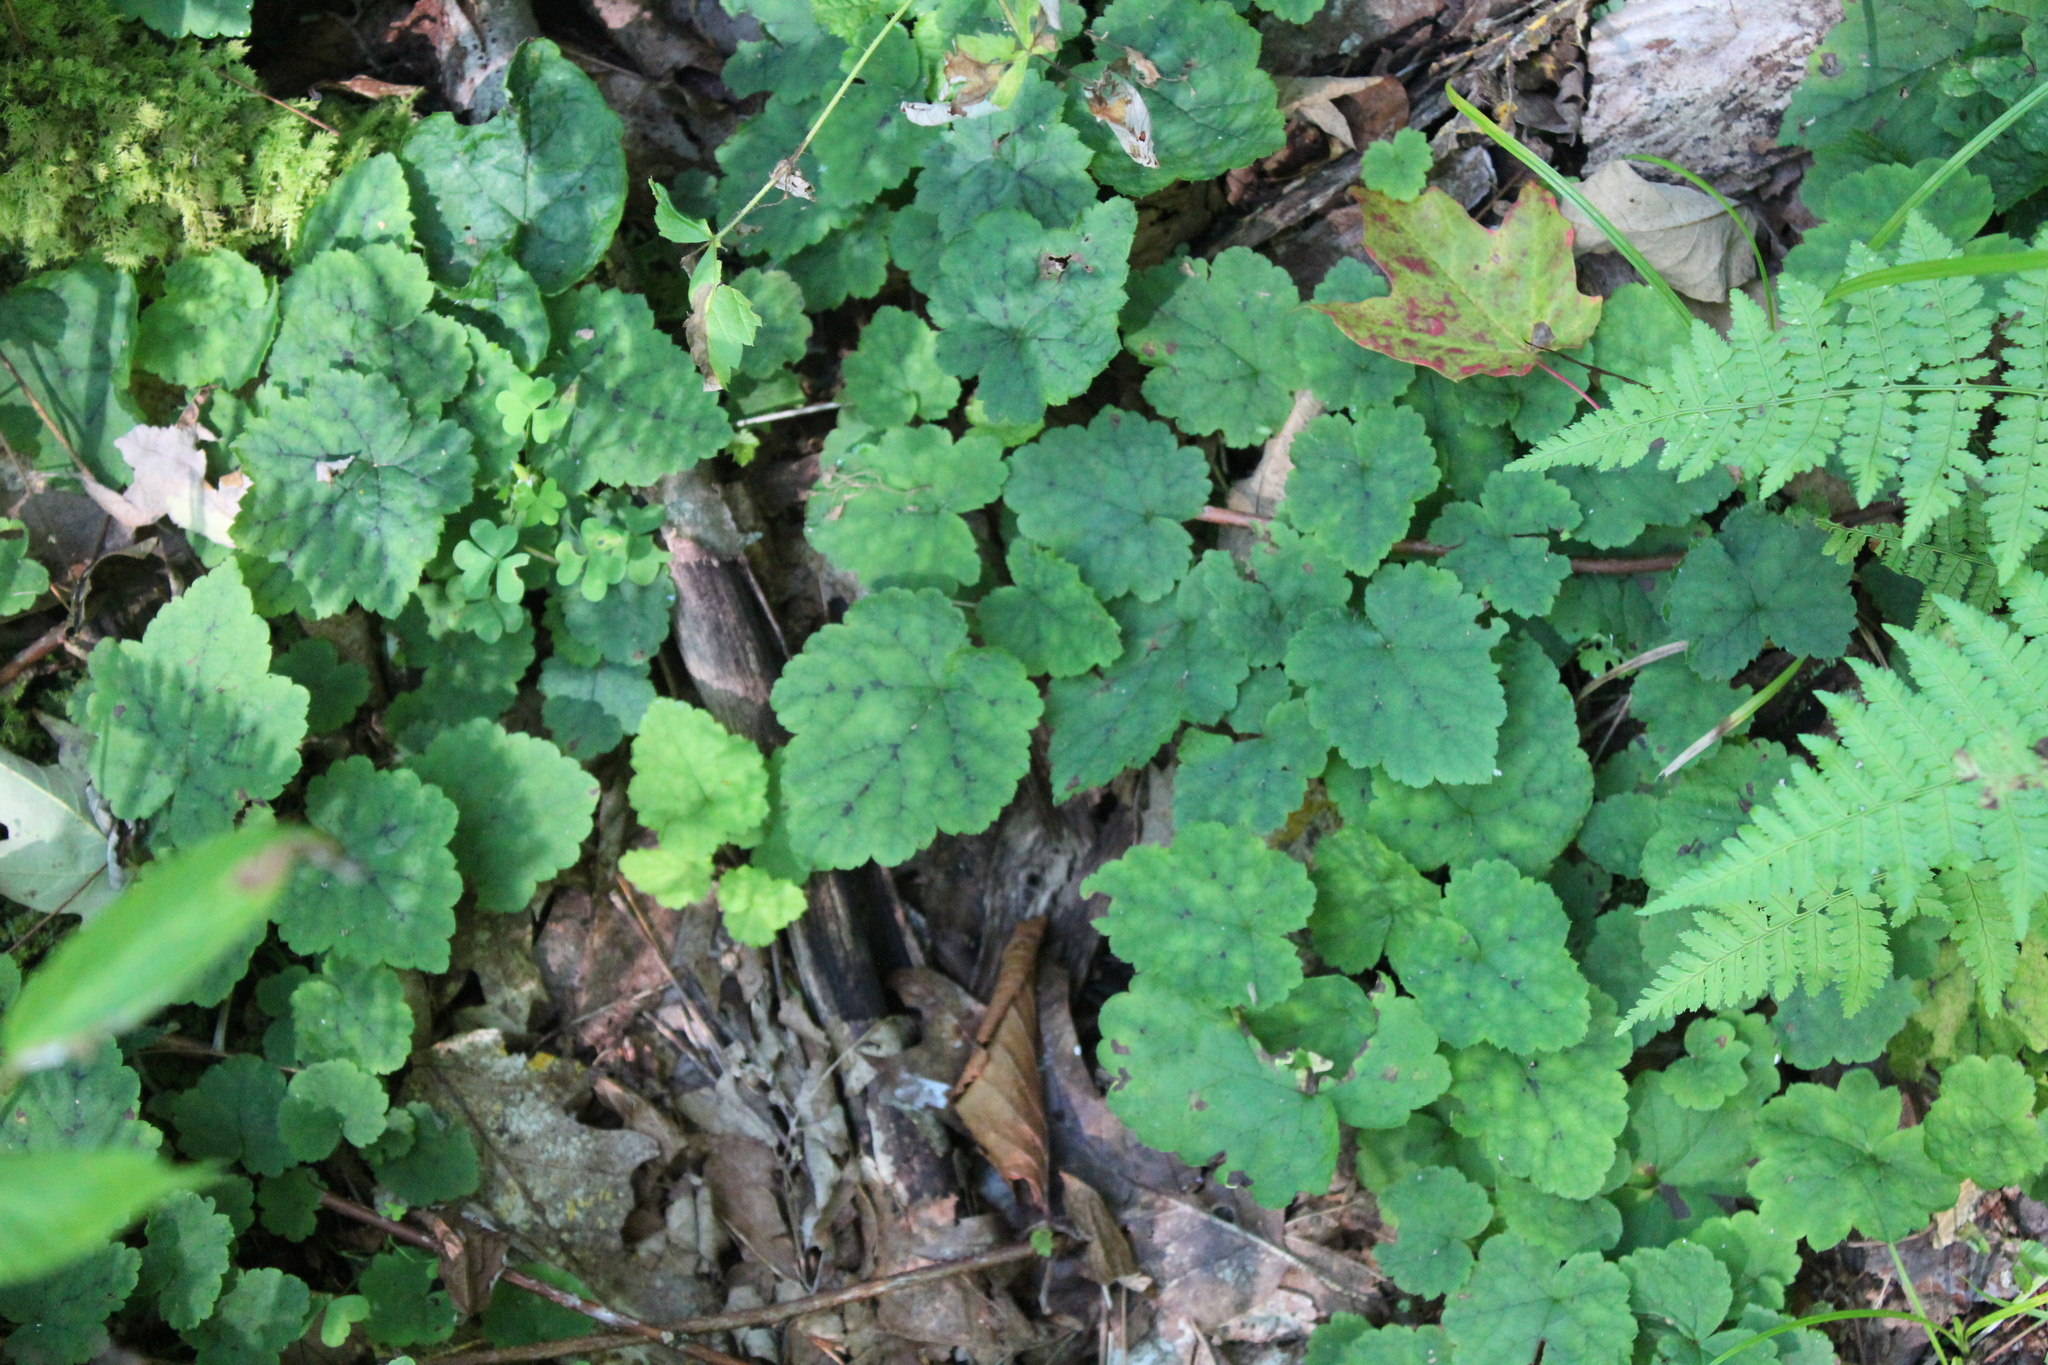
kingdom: Plantae
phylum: Tracheophyta
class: Magnoliopsida
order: Saxifragales
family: Saxifragaceae
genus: Tiarella
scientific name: Tiarella stolonifera
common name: Stoloniferous foamflower
